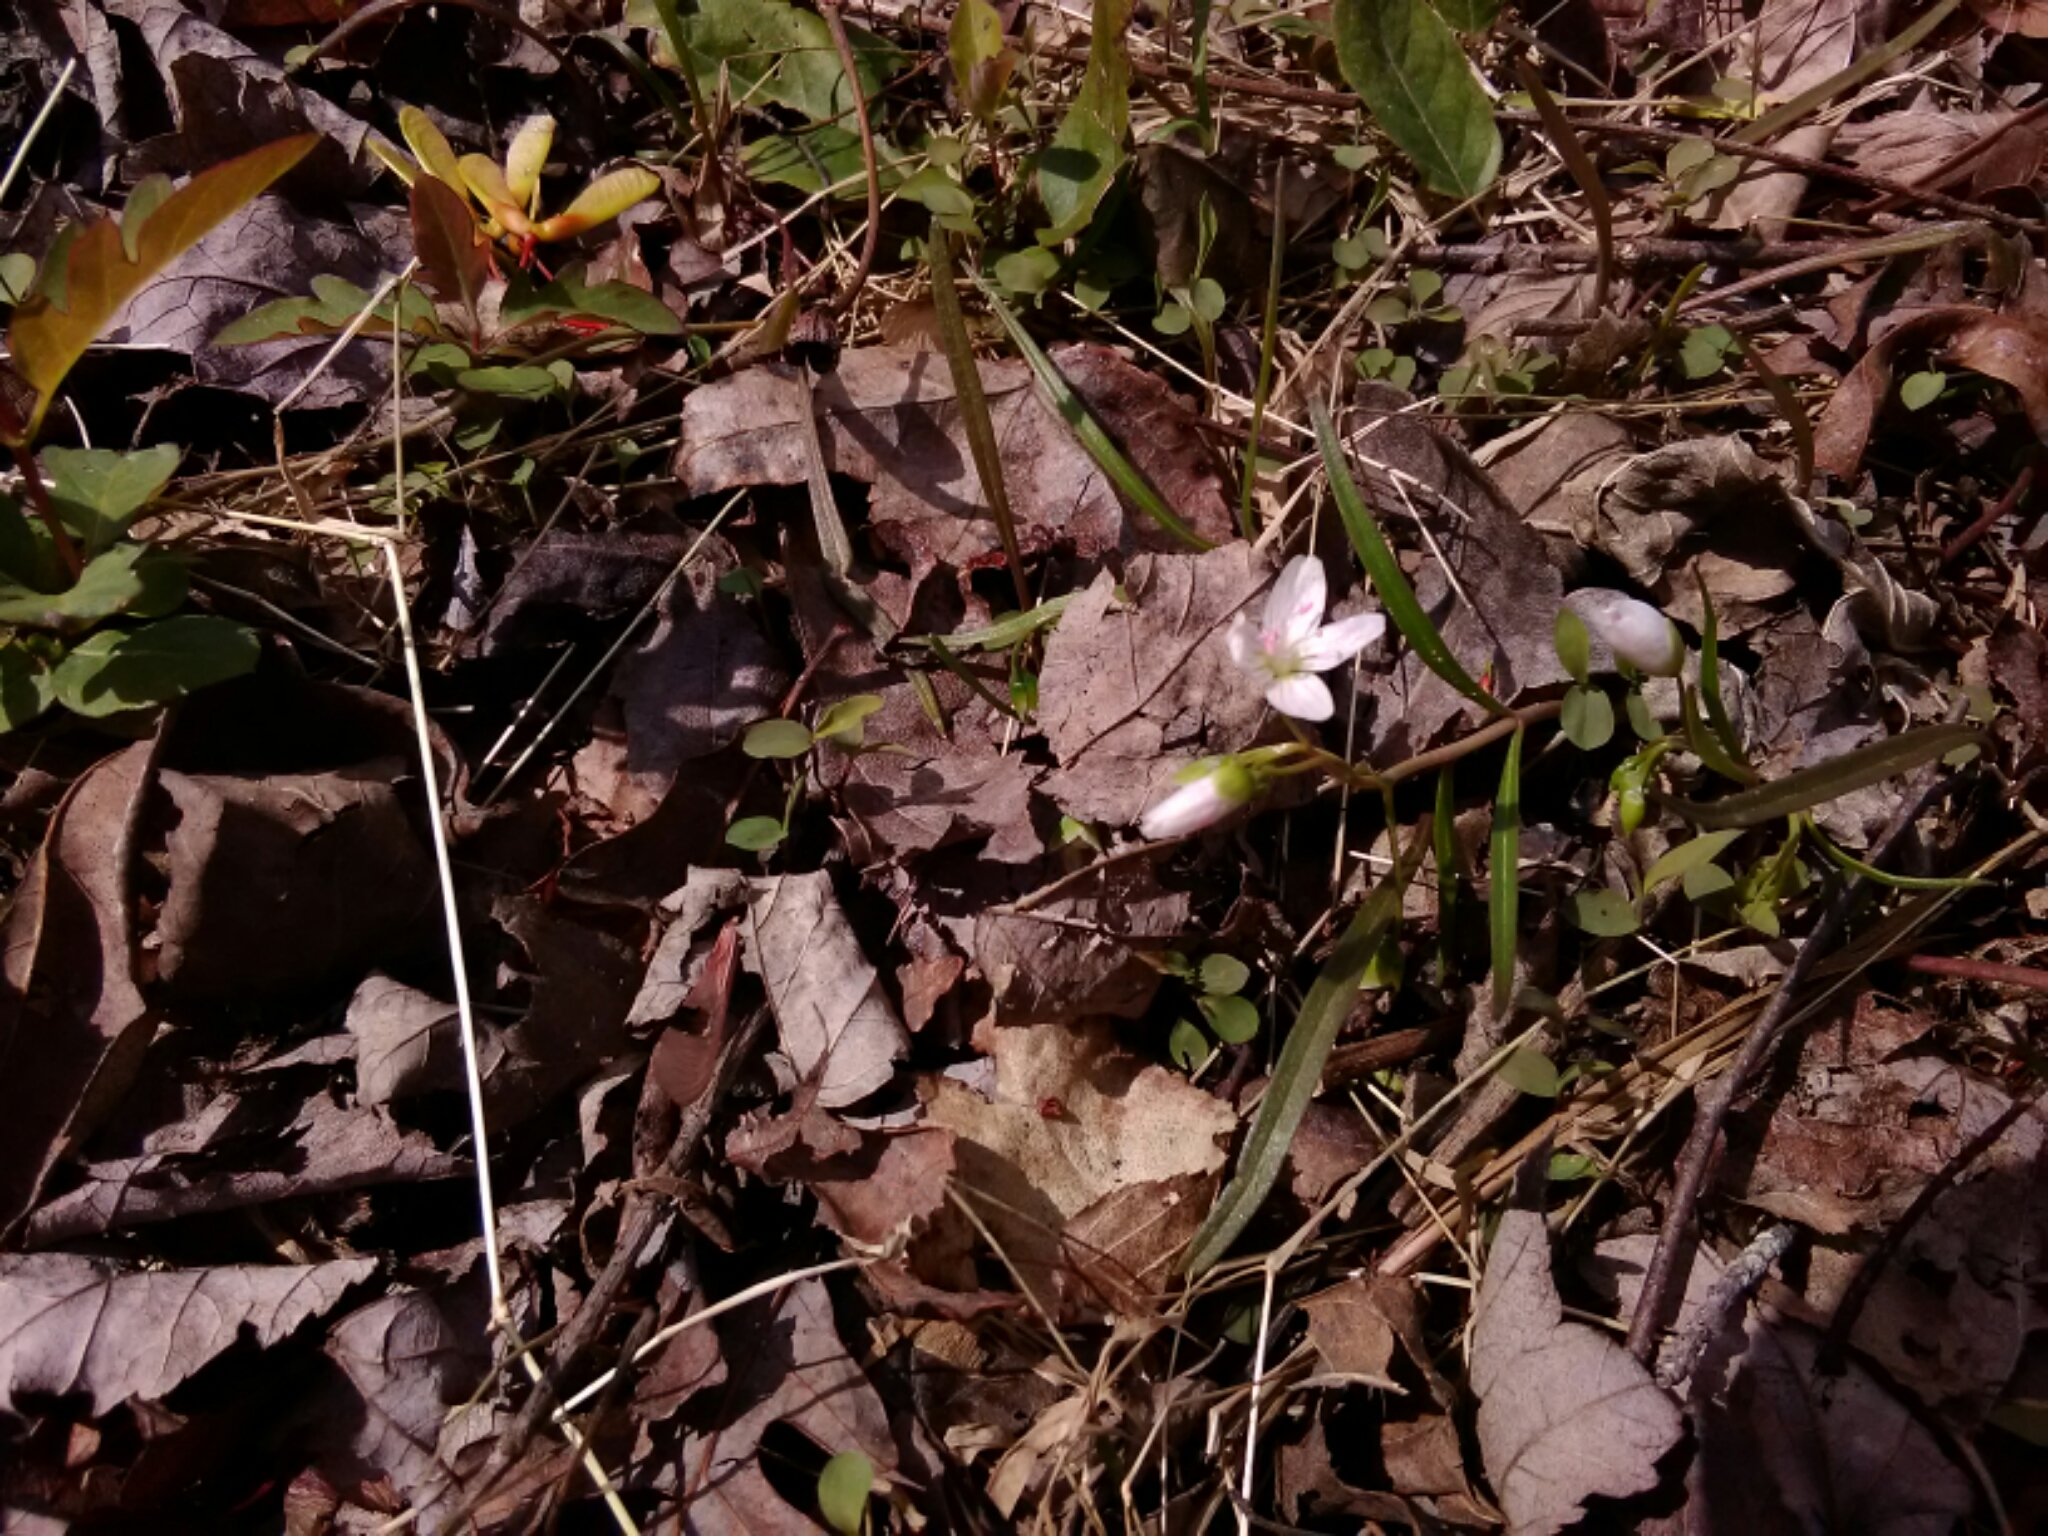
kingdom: Plantae
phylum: Tracheophyta
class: Magnoliopsida
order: Caryophyllales
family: Montiaceae
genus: Claytonia
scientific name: Claytonia virginica
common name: Virginia springbeauty
